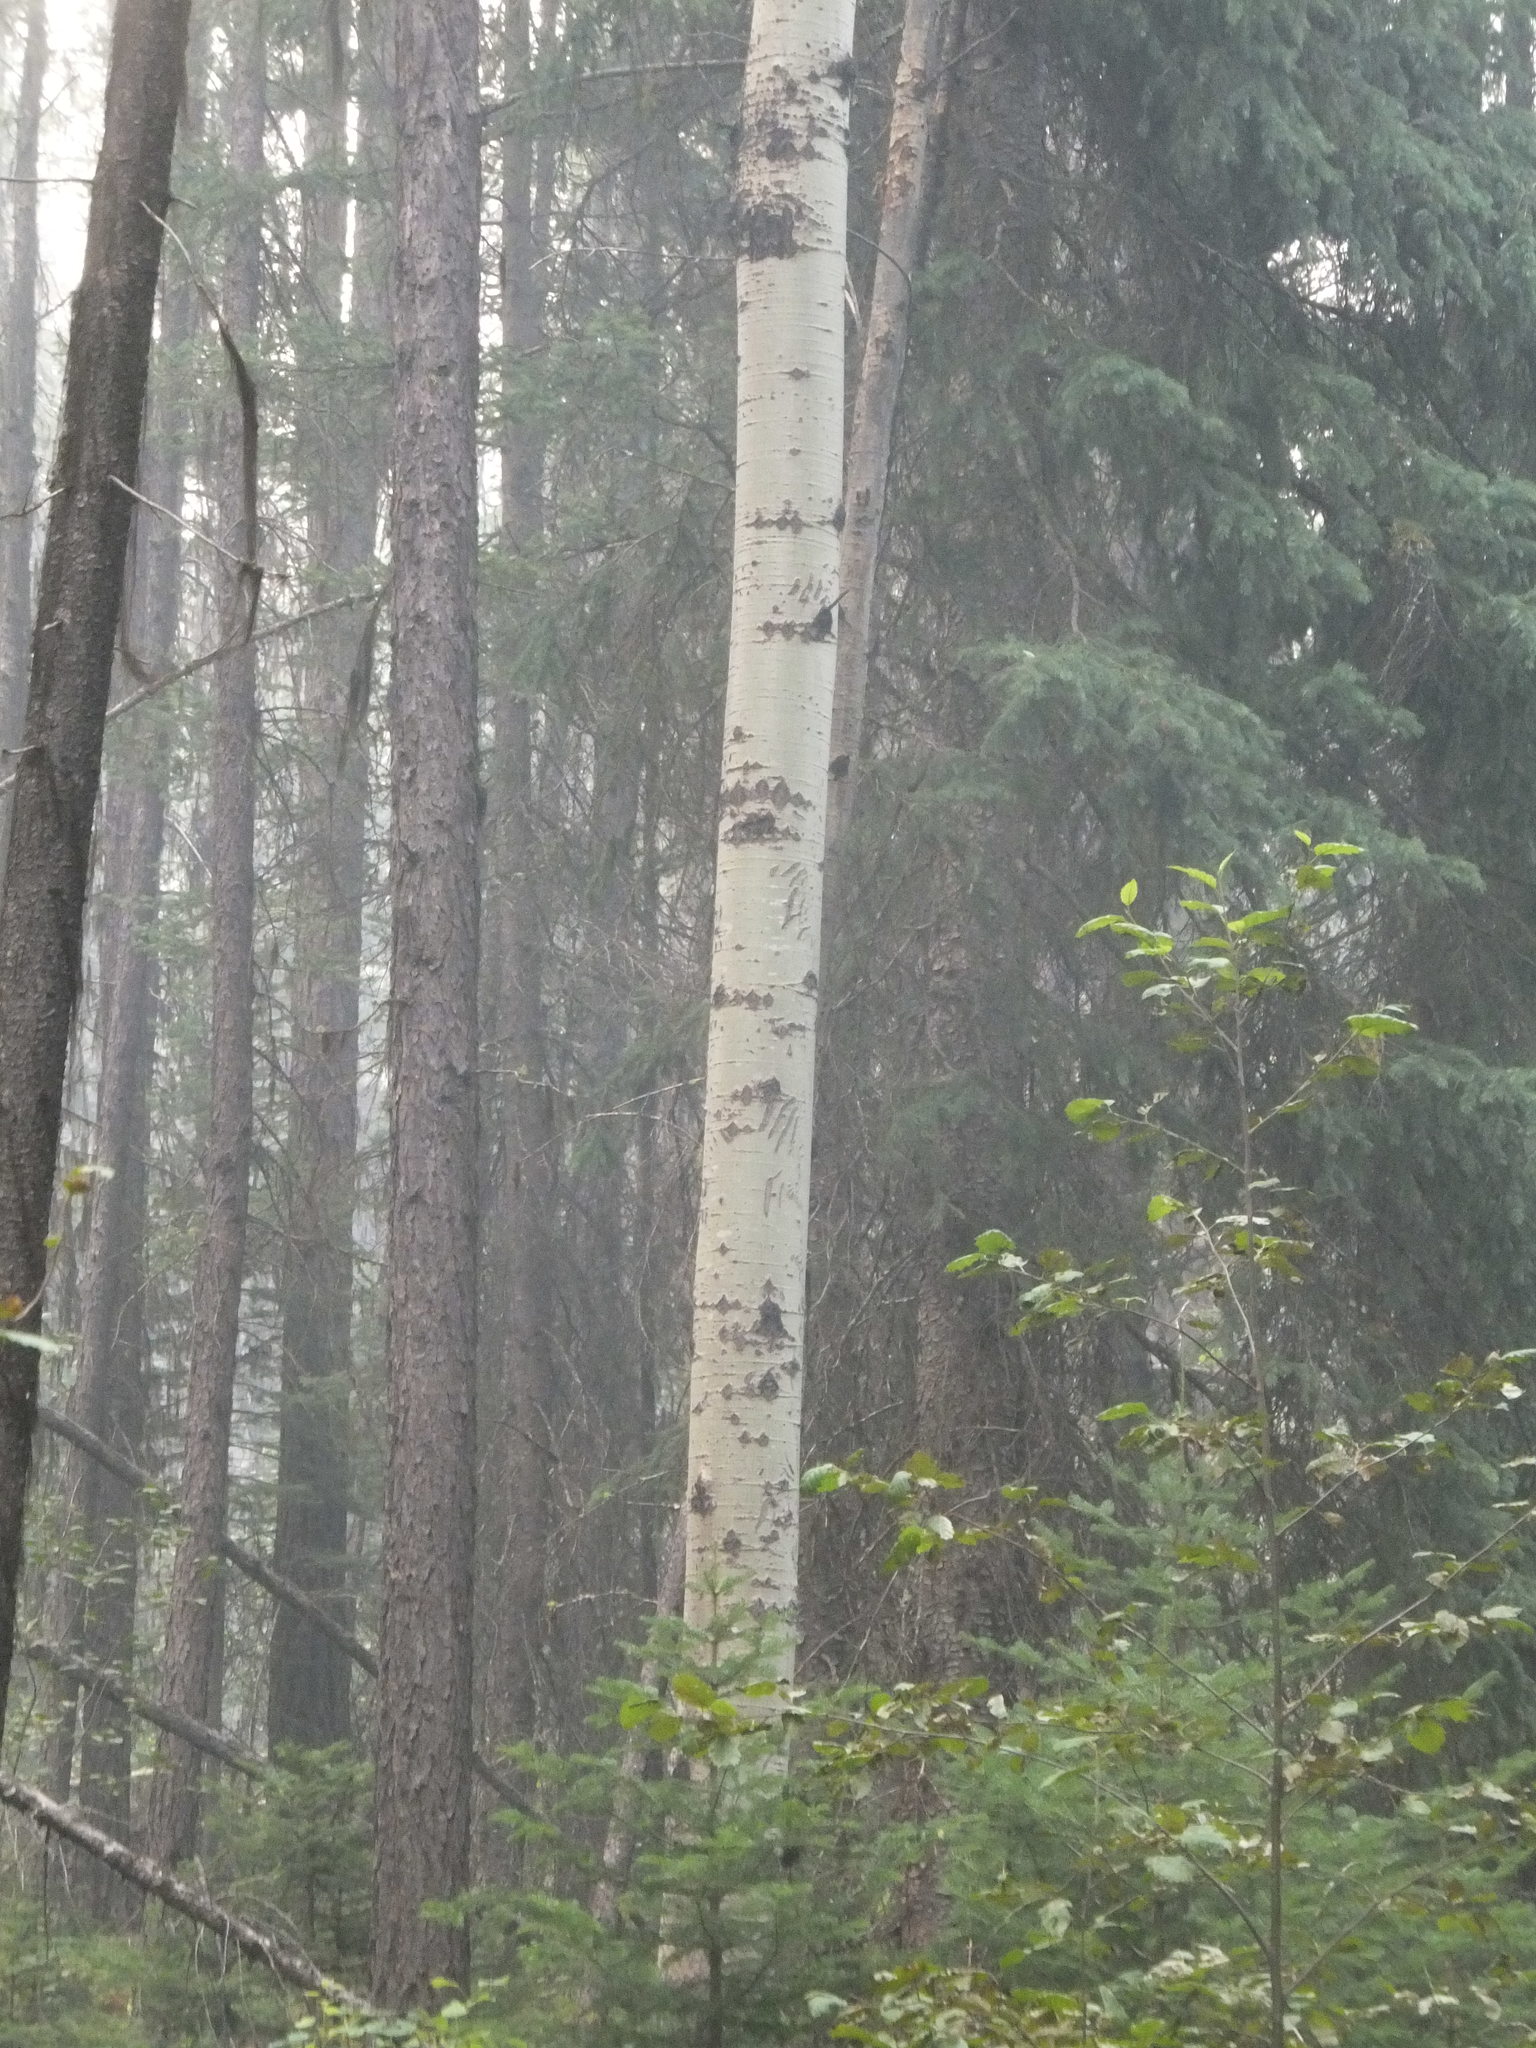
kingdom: Plantae
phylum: Tracheophyta
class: Magnoliopsida
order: Malpighiales
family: Salicaceae
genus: Populus
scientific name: Populus tremuloides
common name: Quaking aspen
